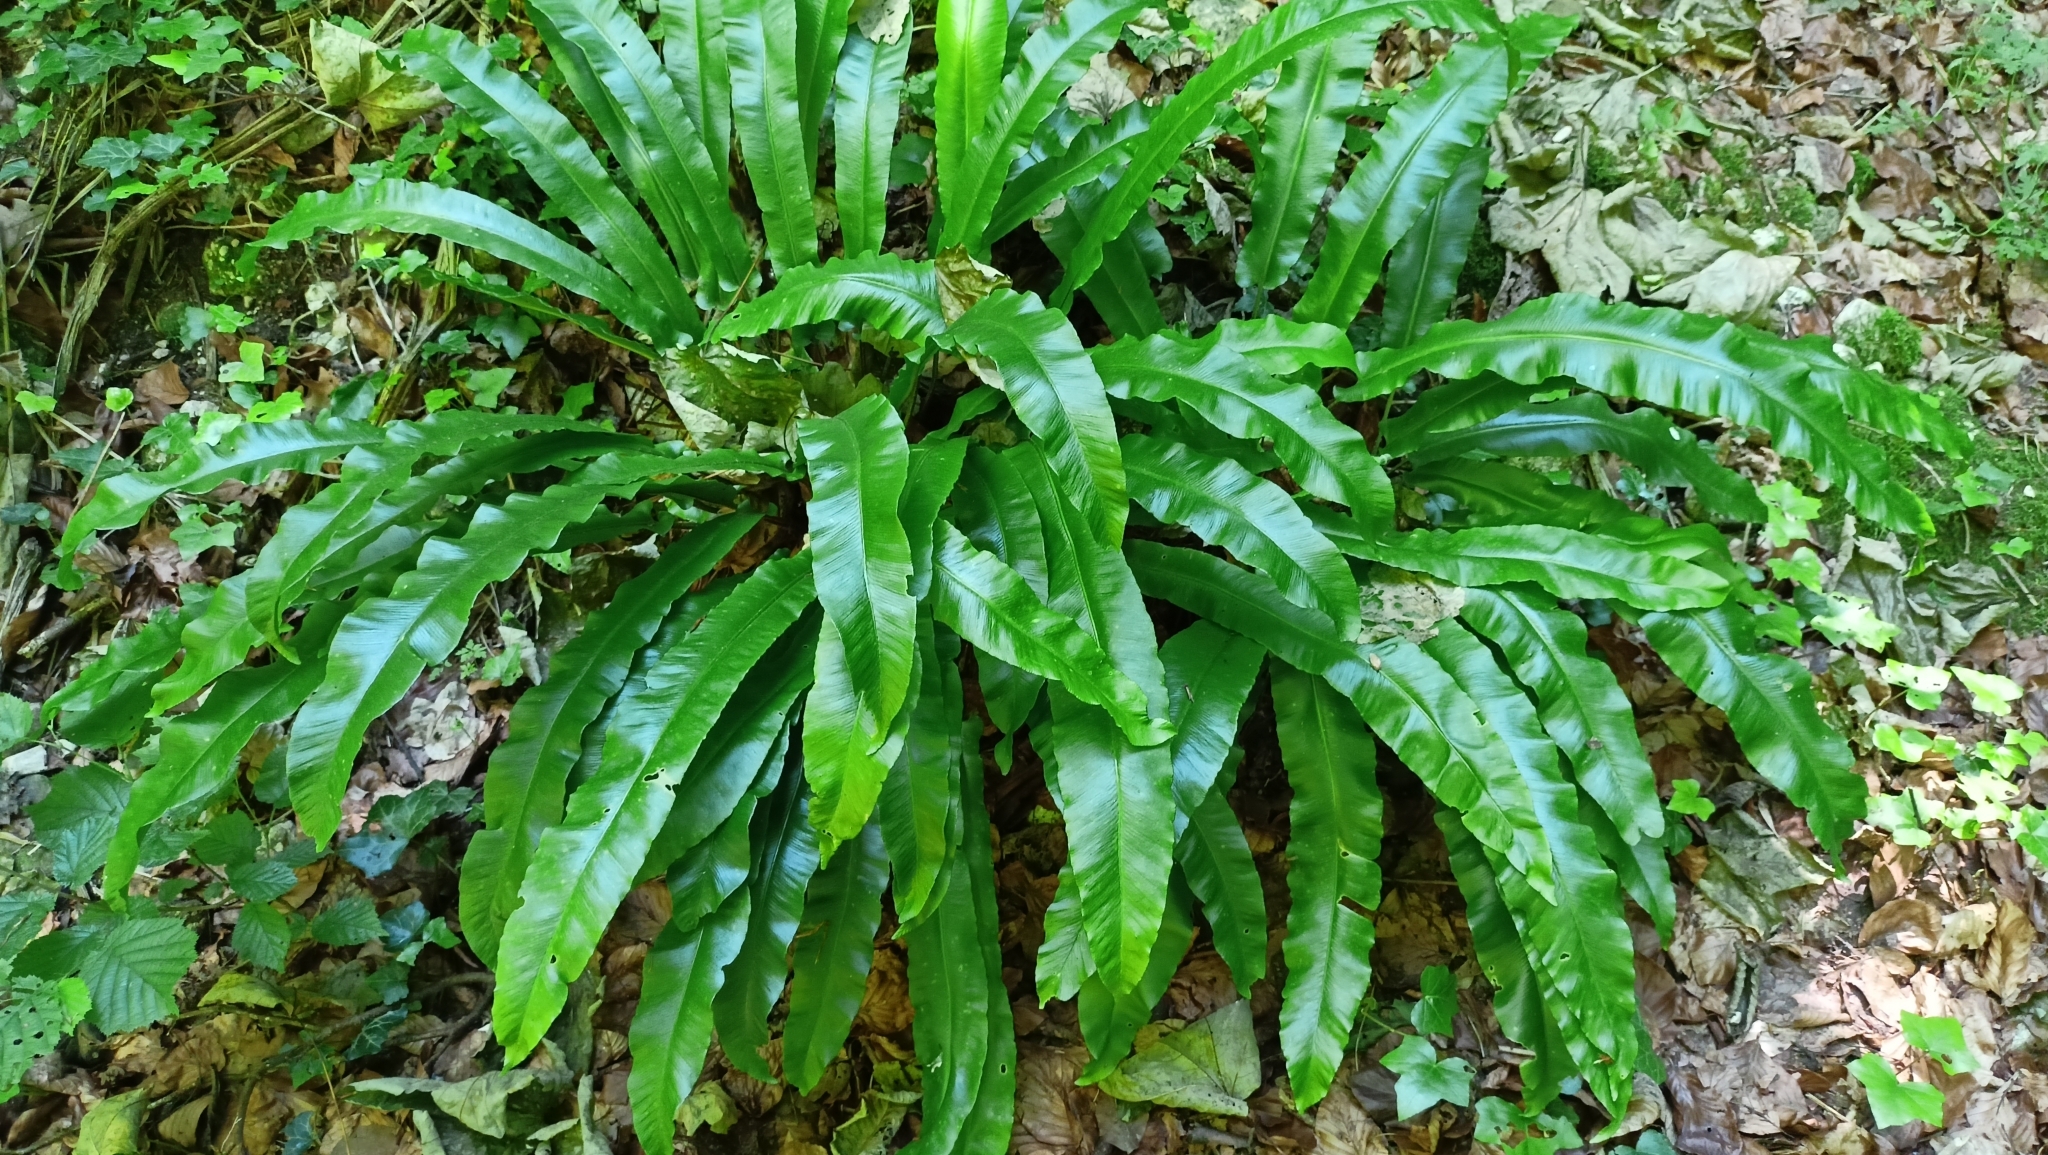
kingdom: Plantae
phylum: Tracheophyta
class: Polypodiopsida
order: Polypodiales
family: Aspleniaceae
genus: Asplenium
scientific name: Asplenium scolopendrium
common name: Hart's-tongue fern
